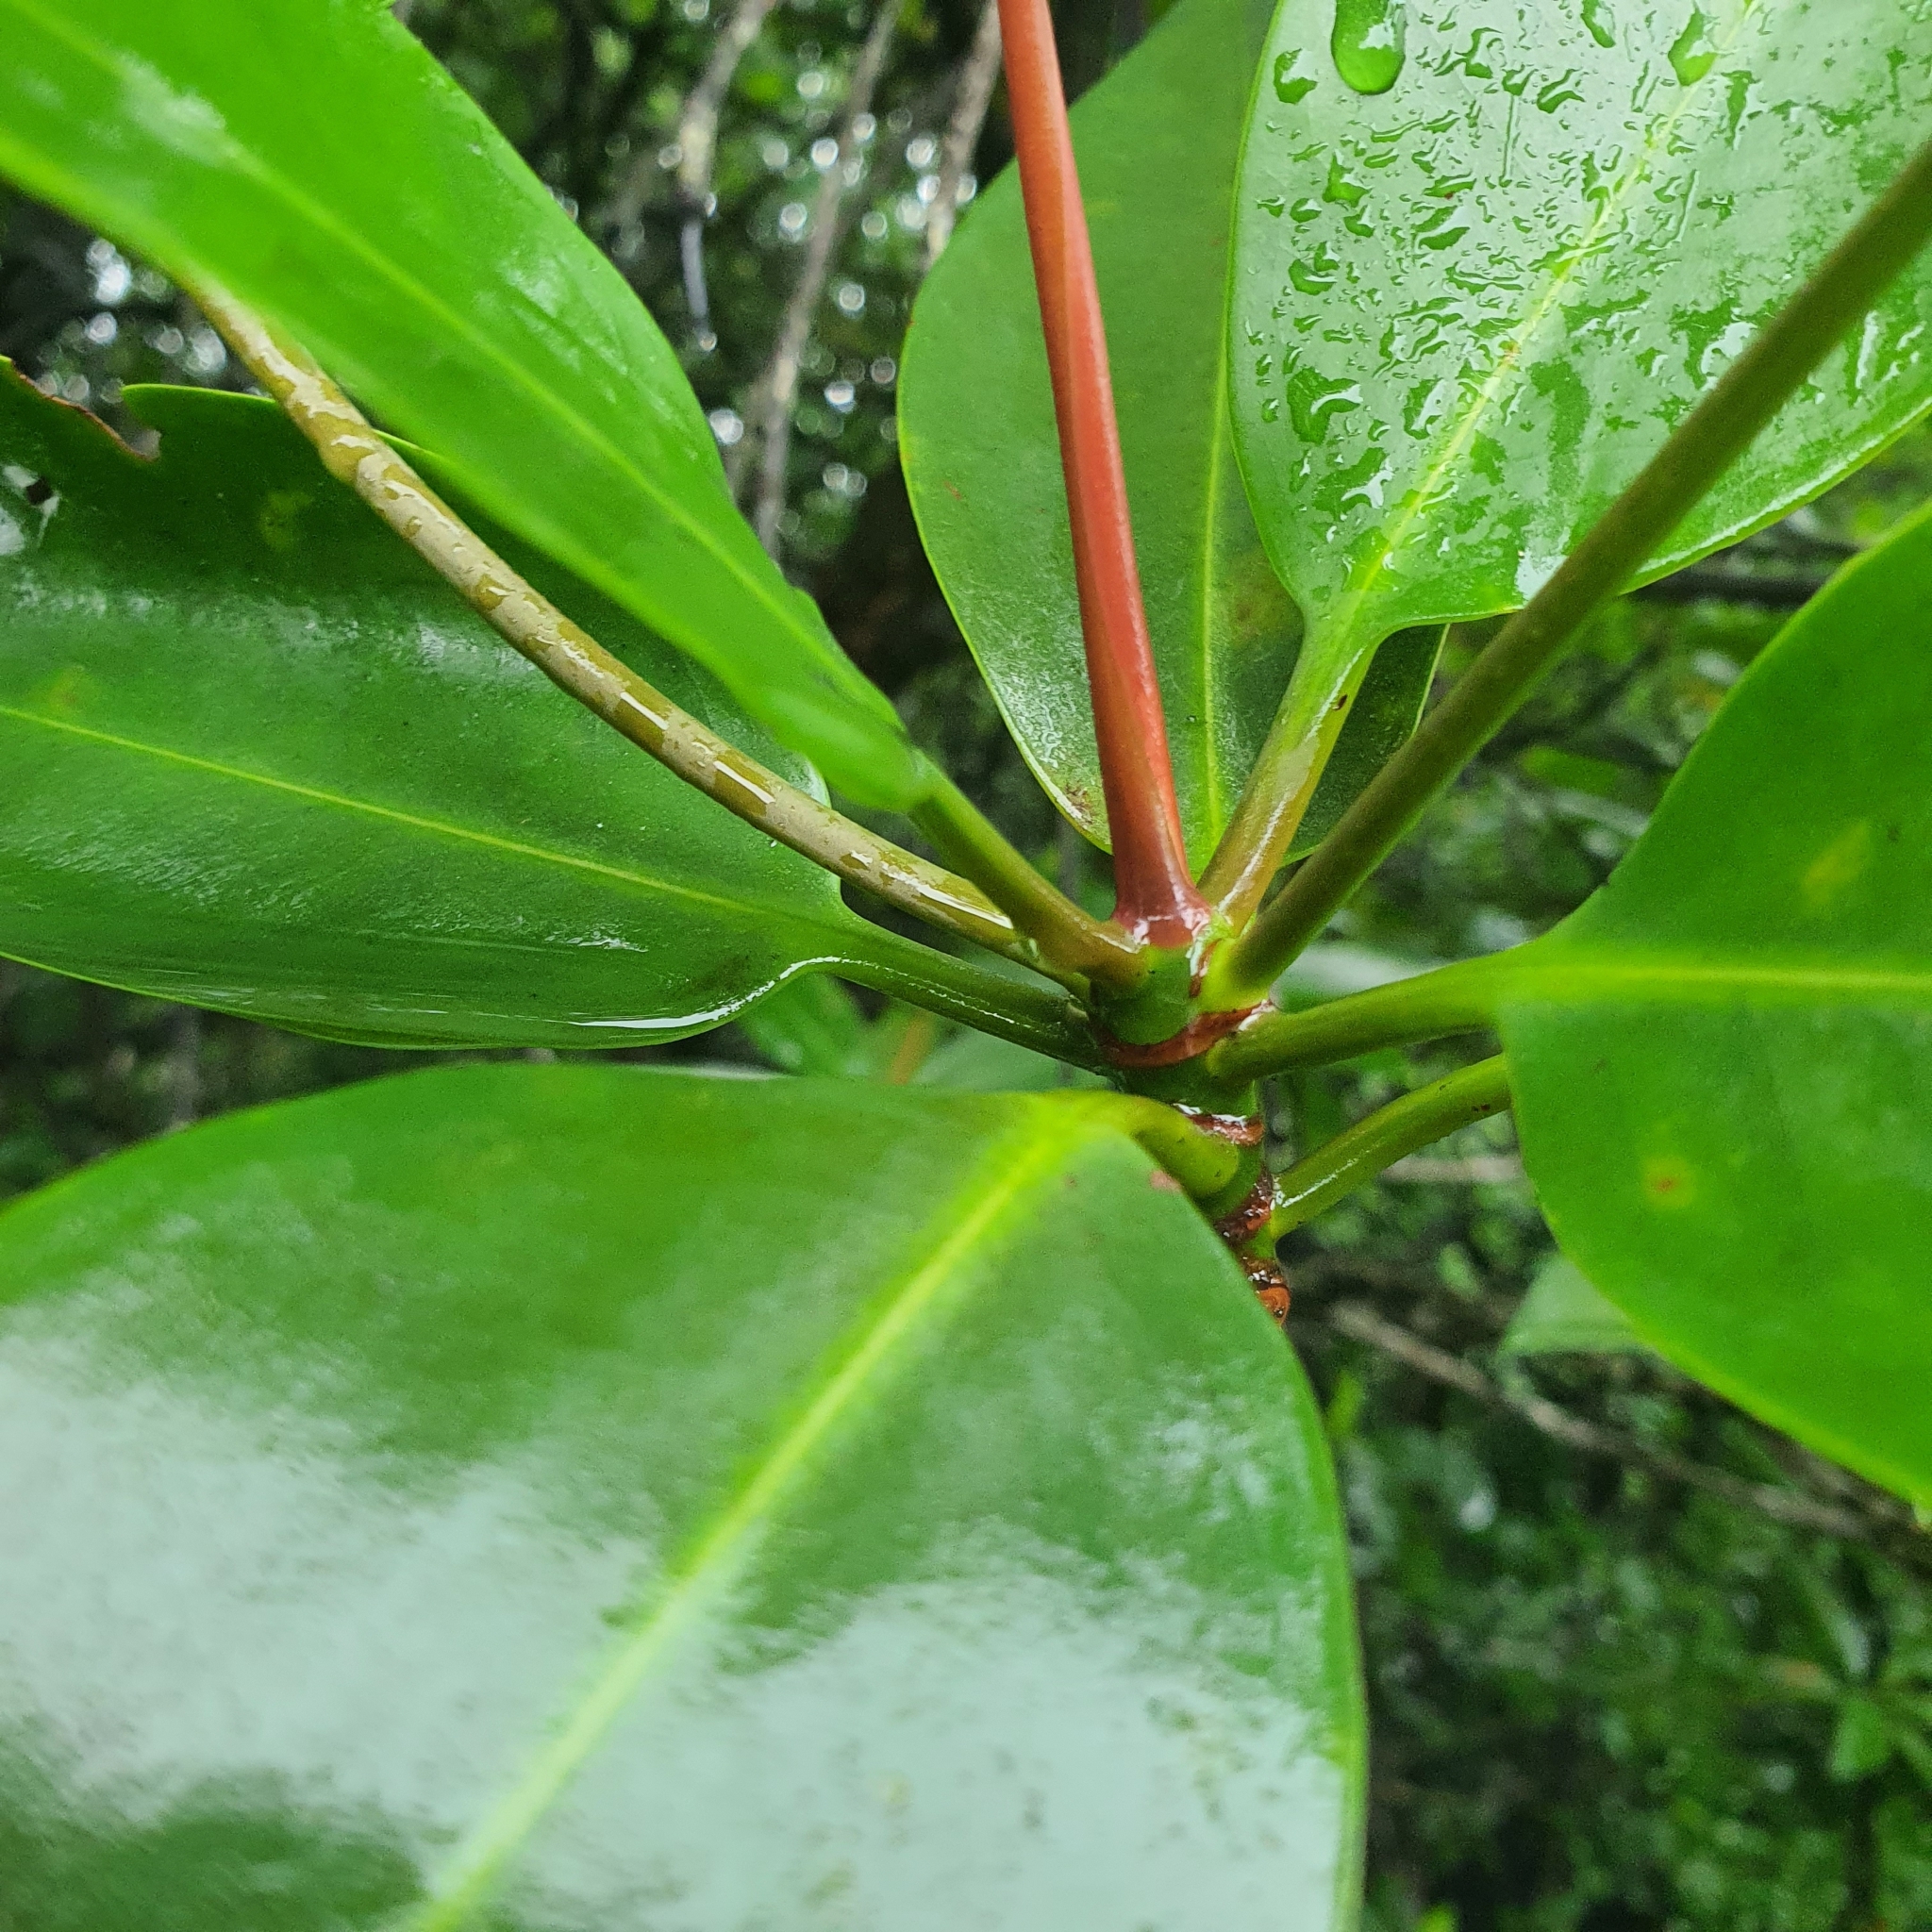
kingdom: Plantae
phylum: Tracheophyta
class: Magnoliopsida
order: Malpighiales
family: Rhizophoraceae
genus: Rhizophora
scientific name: Rhizophora apiculata
